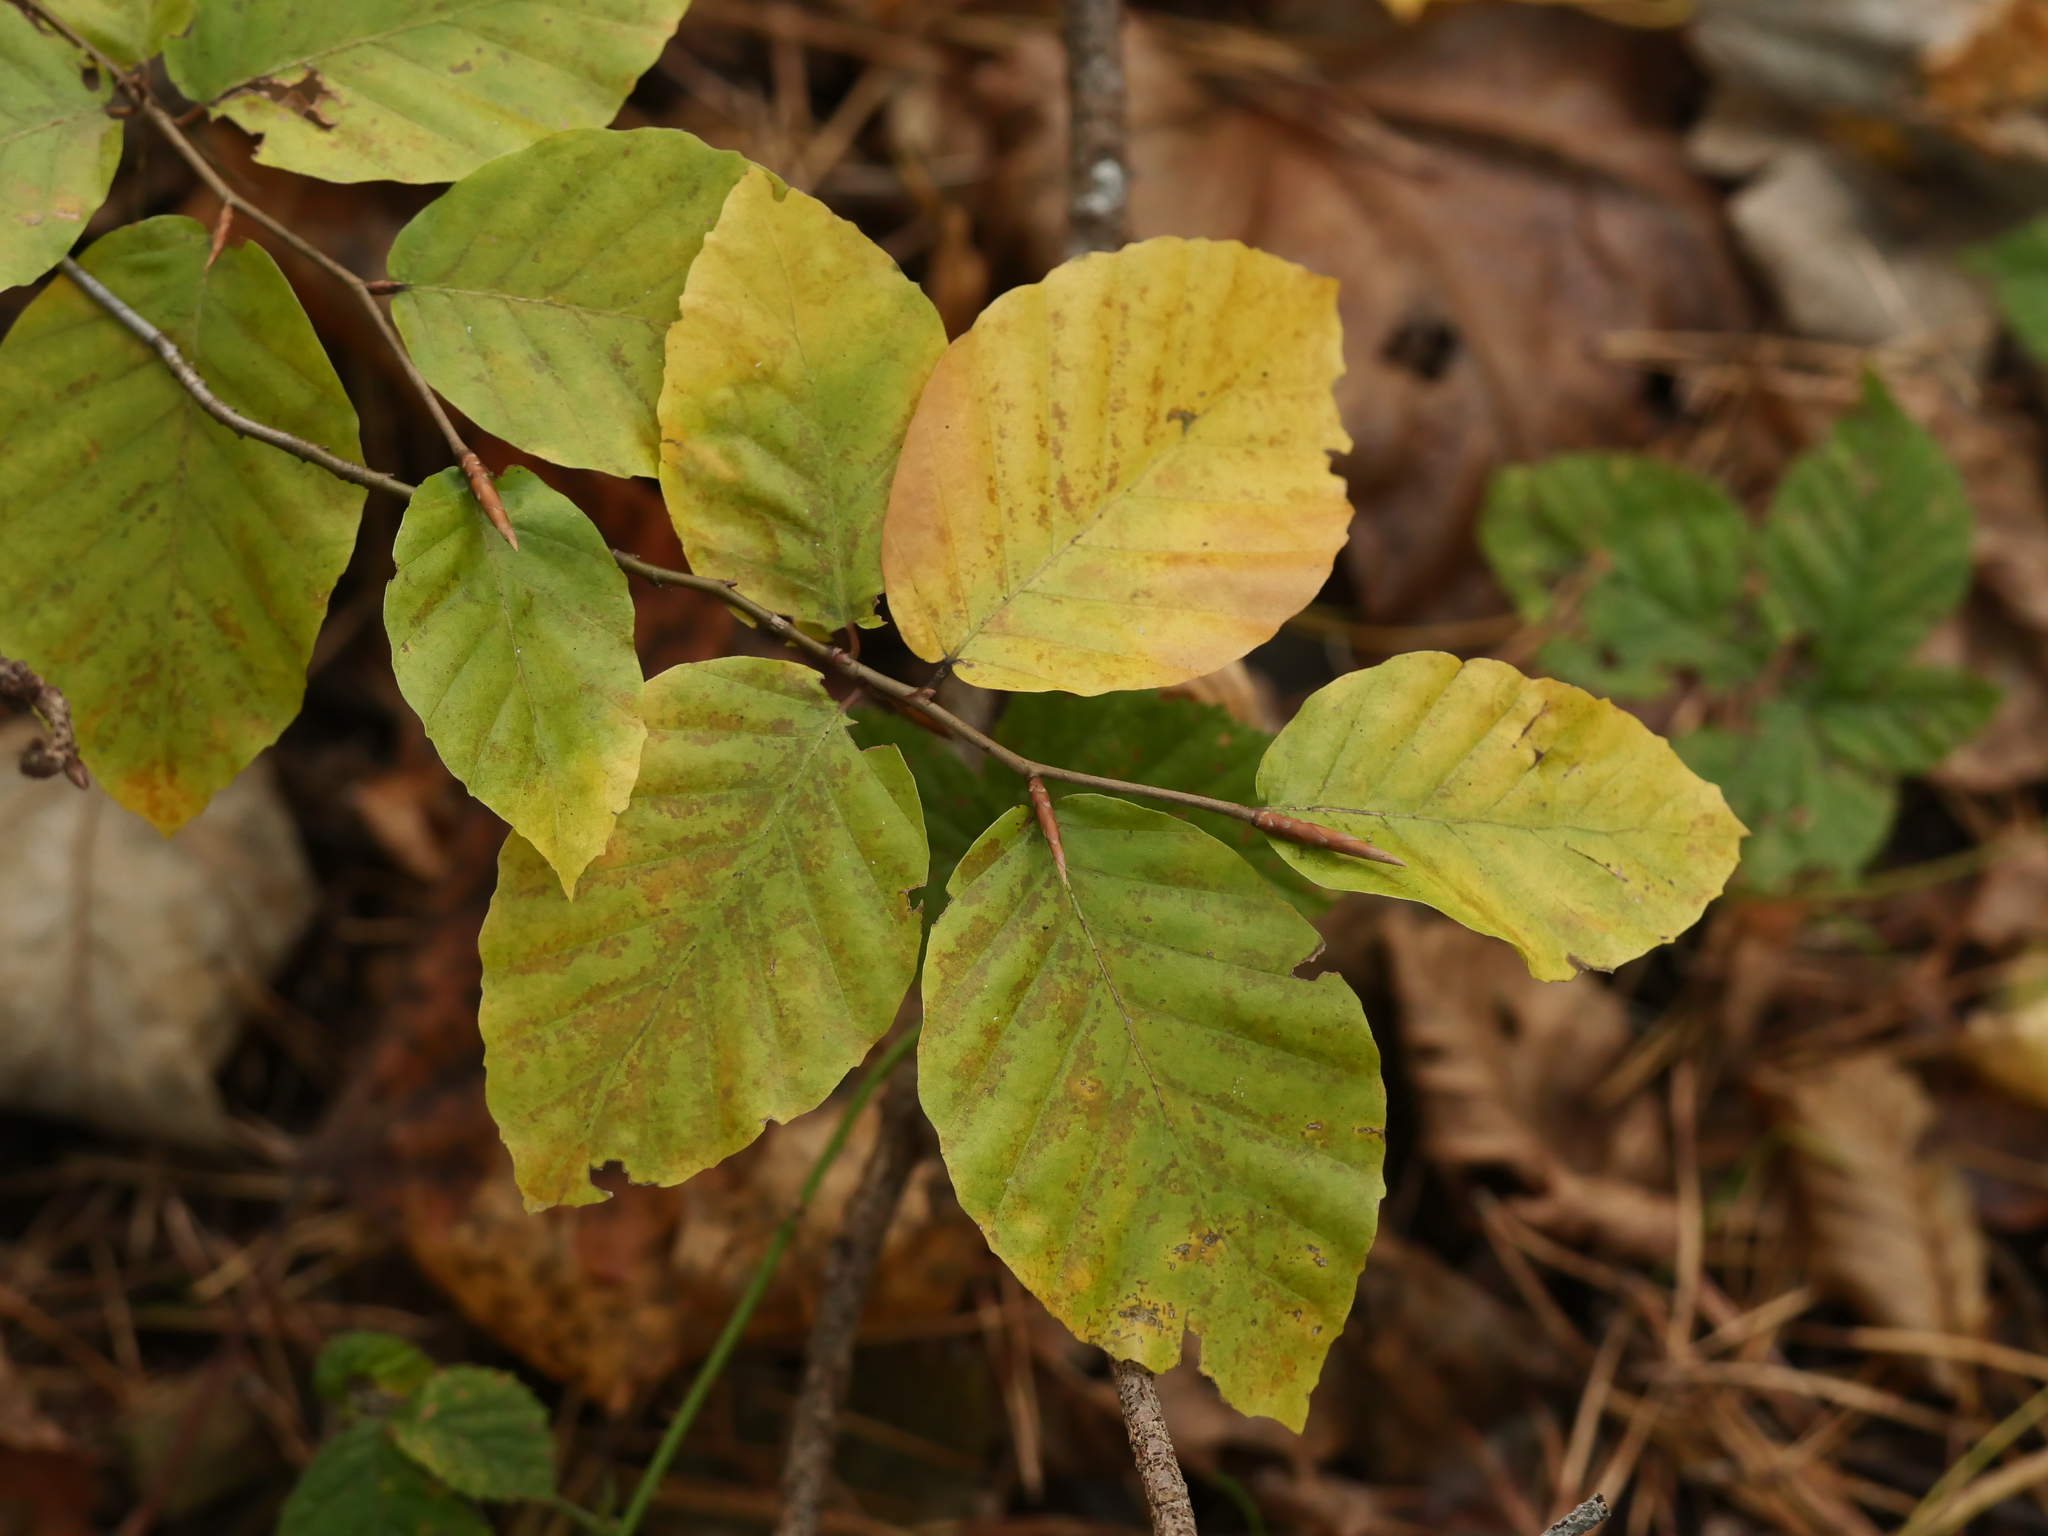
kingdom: Plantae
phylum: Tracheophyta
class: Magnoliopsida
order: Fagales
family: Fagaceae
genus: Fagus
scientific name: Fagus sylvatica
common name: Beech
